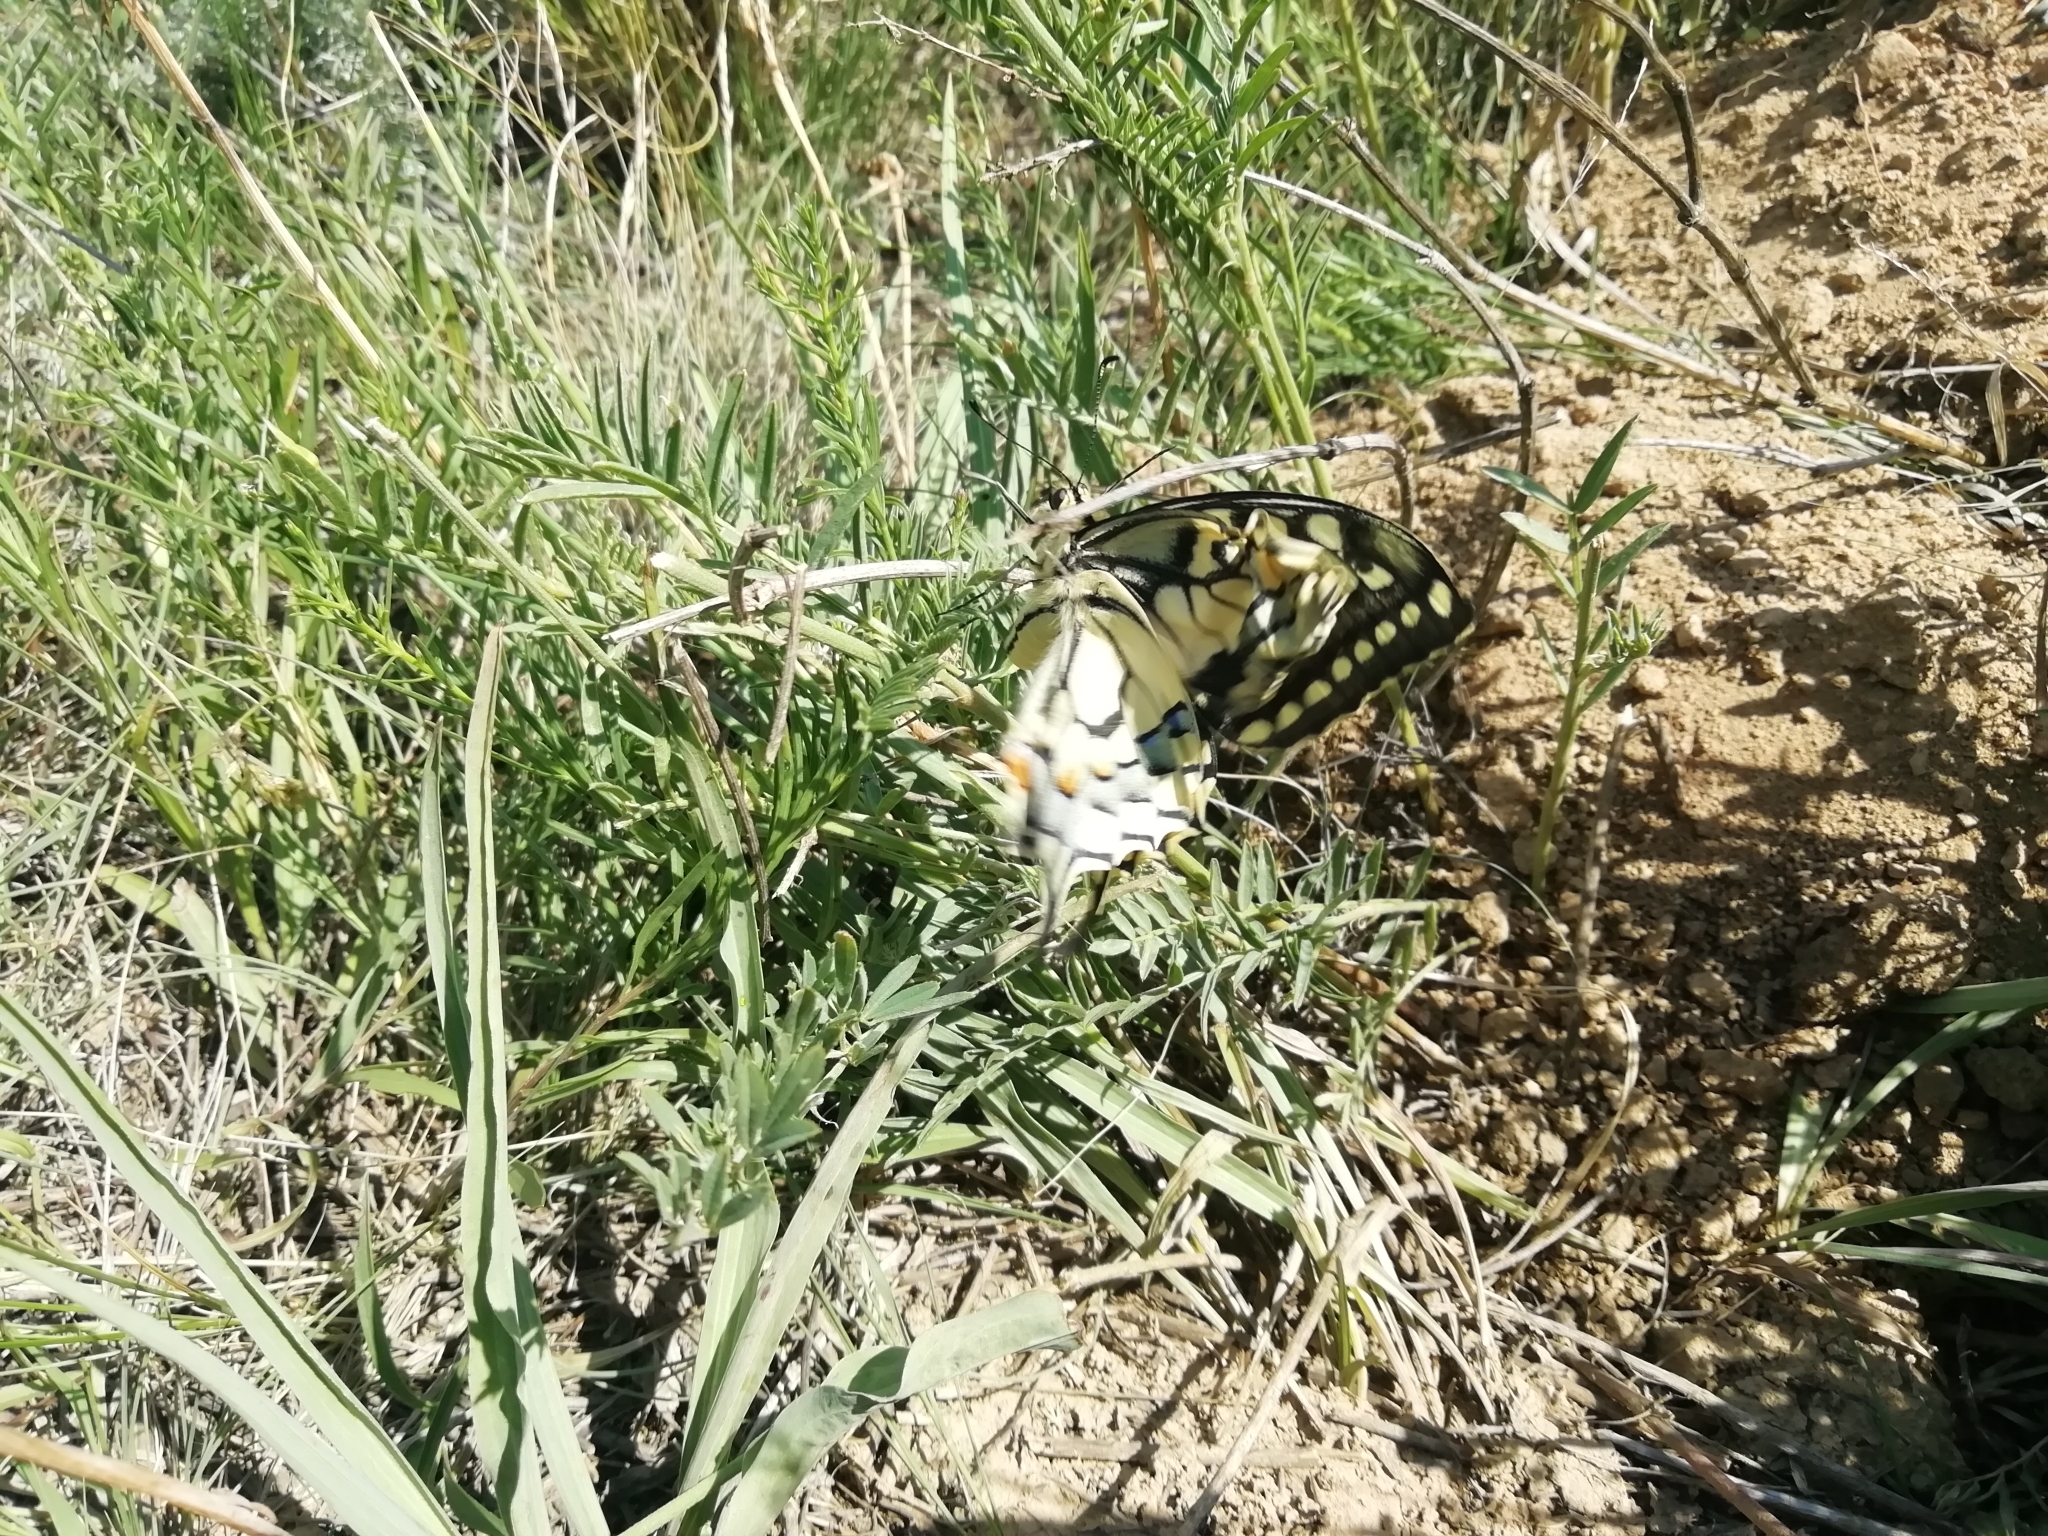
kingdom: Animalia
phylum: Arthropoda
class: Insecta
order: Lepidoptera
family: Papilionidae
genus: Papilio
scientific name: Papilio machaon
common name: Swallowtail
